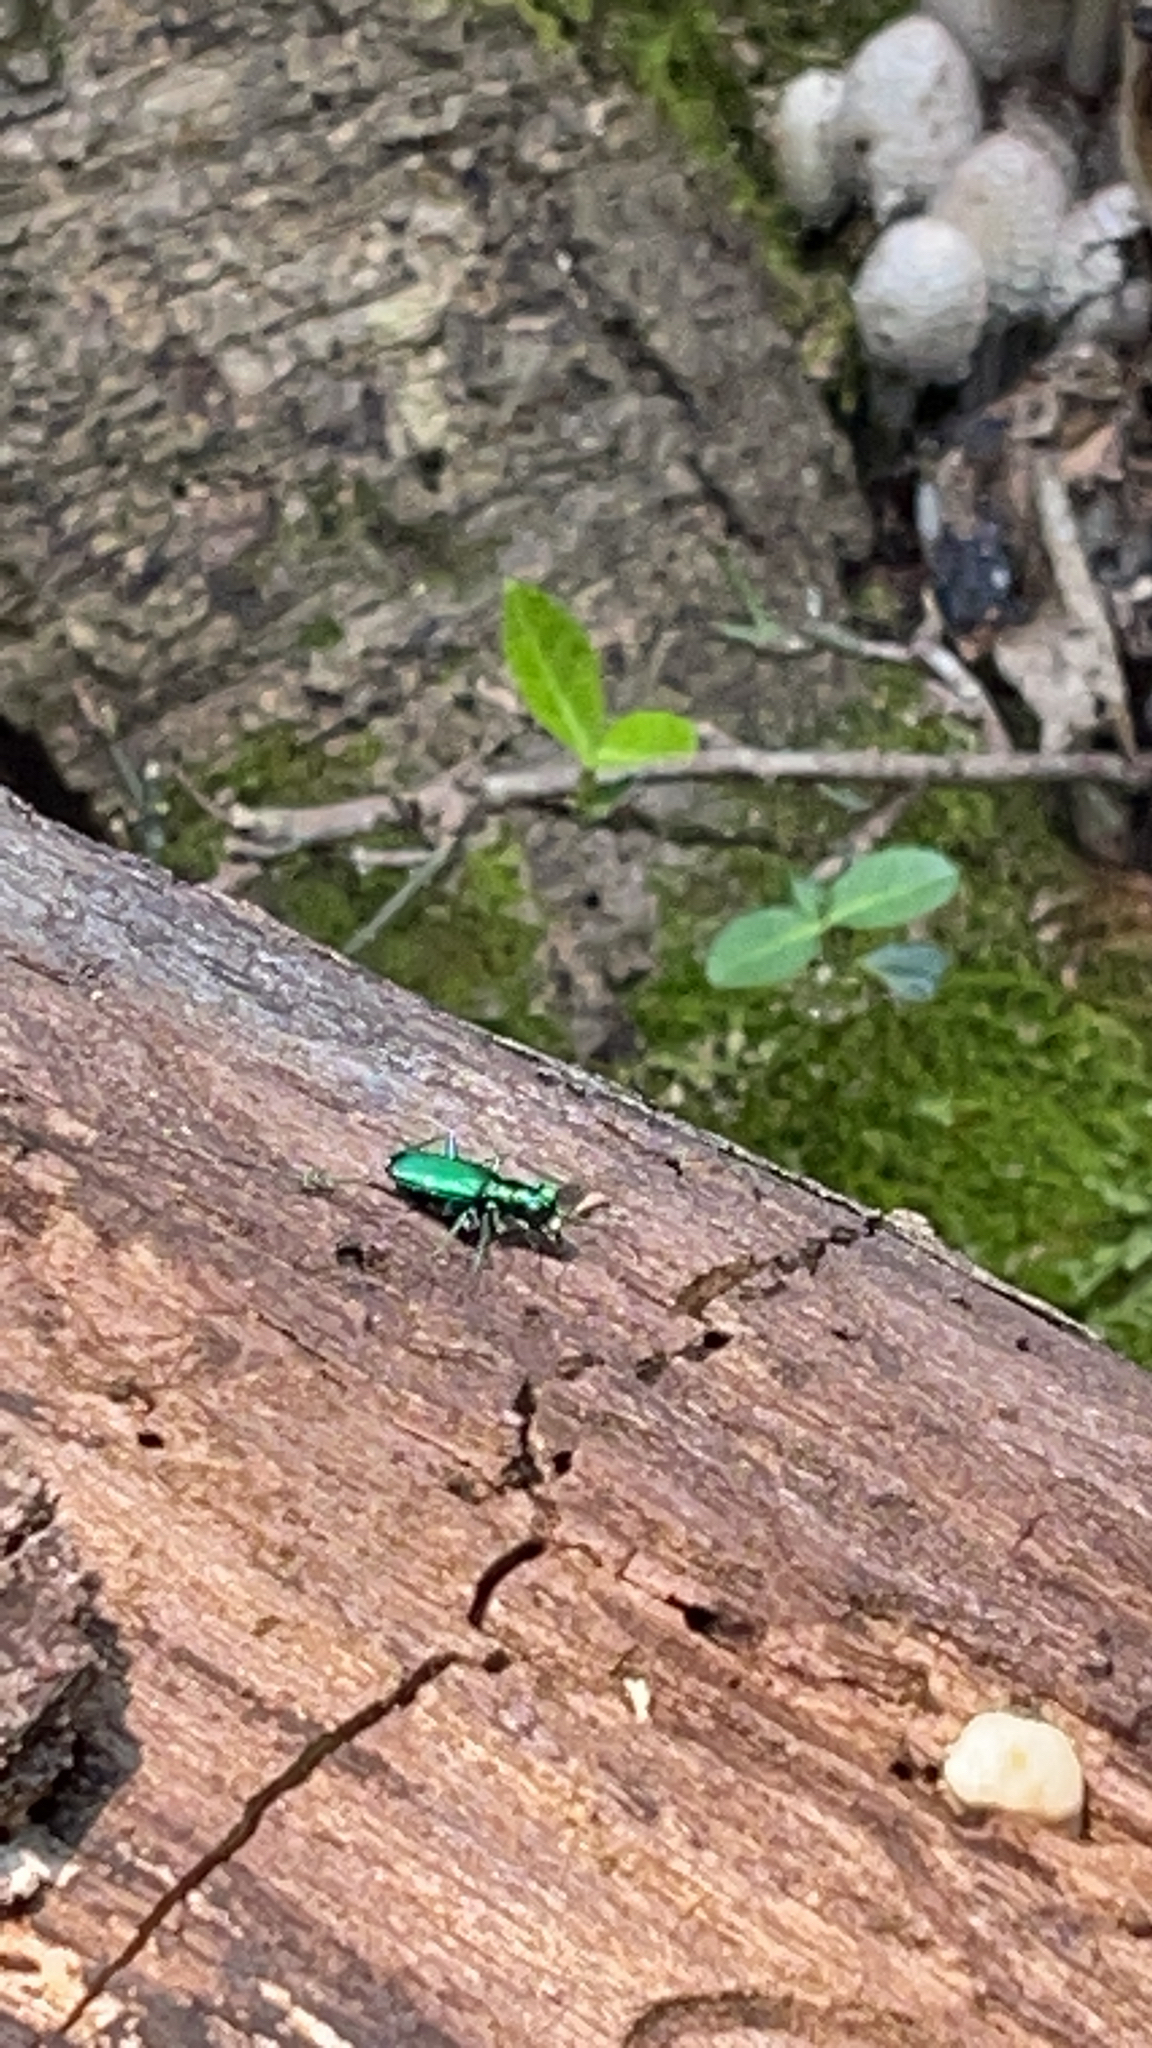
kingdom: Animalia
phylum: Arthropoda
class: Insecta
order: Coleoptera
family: Carabidae
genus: Cicindela
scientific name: Cicindela sexguttata
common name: Six-spotted tiger beetle
